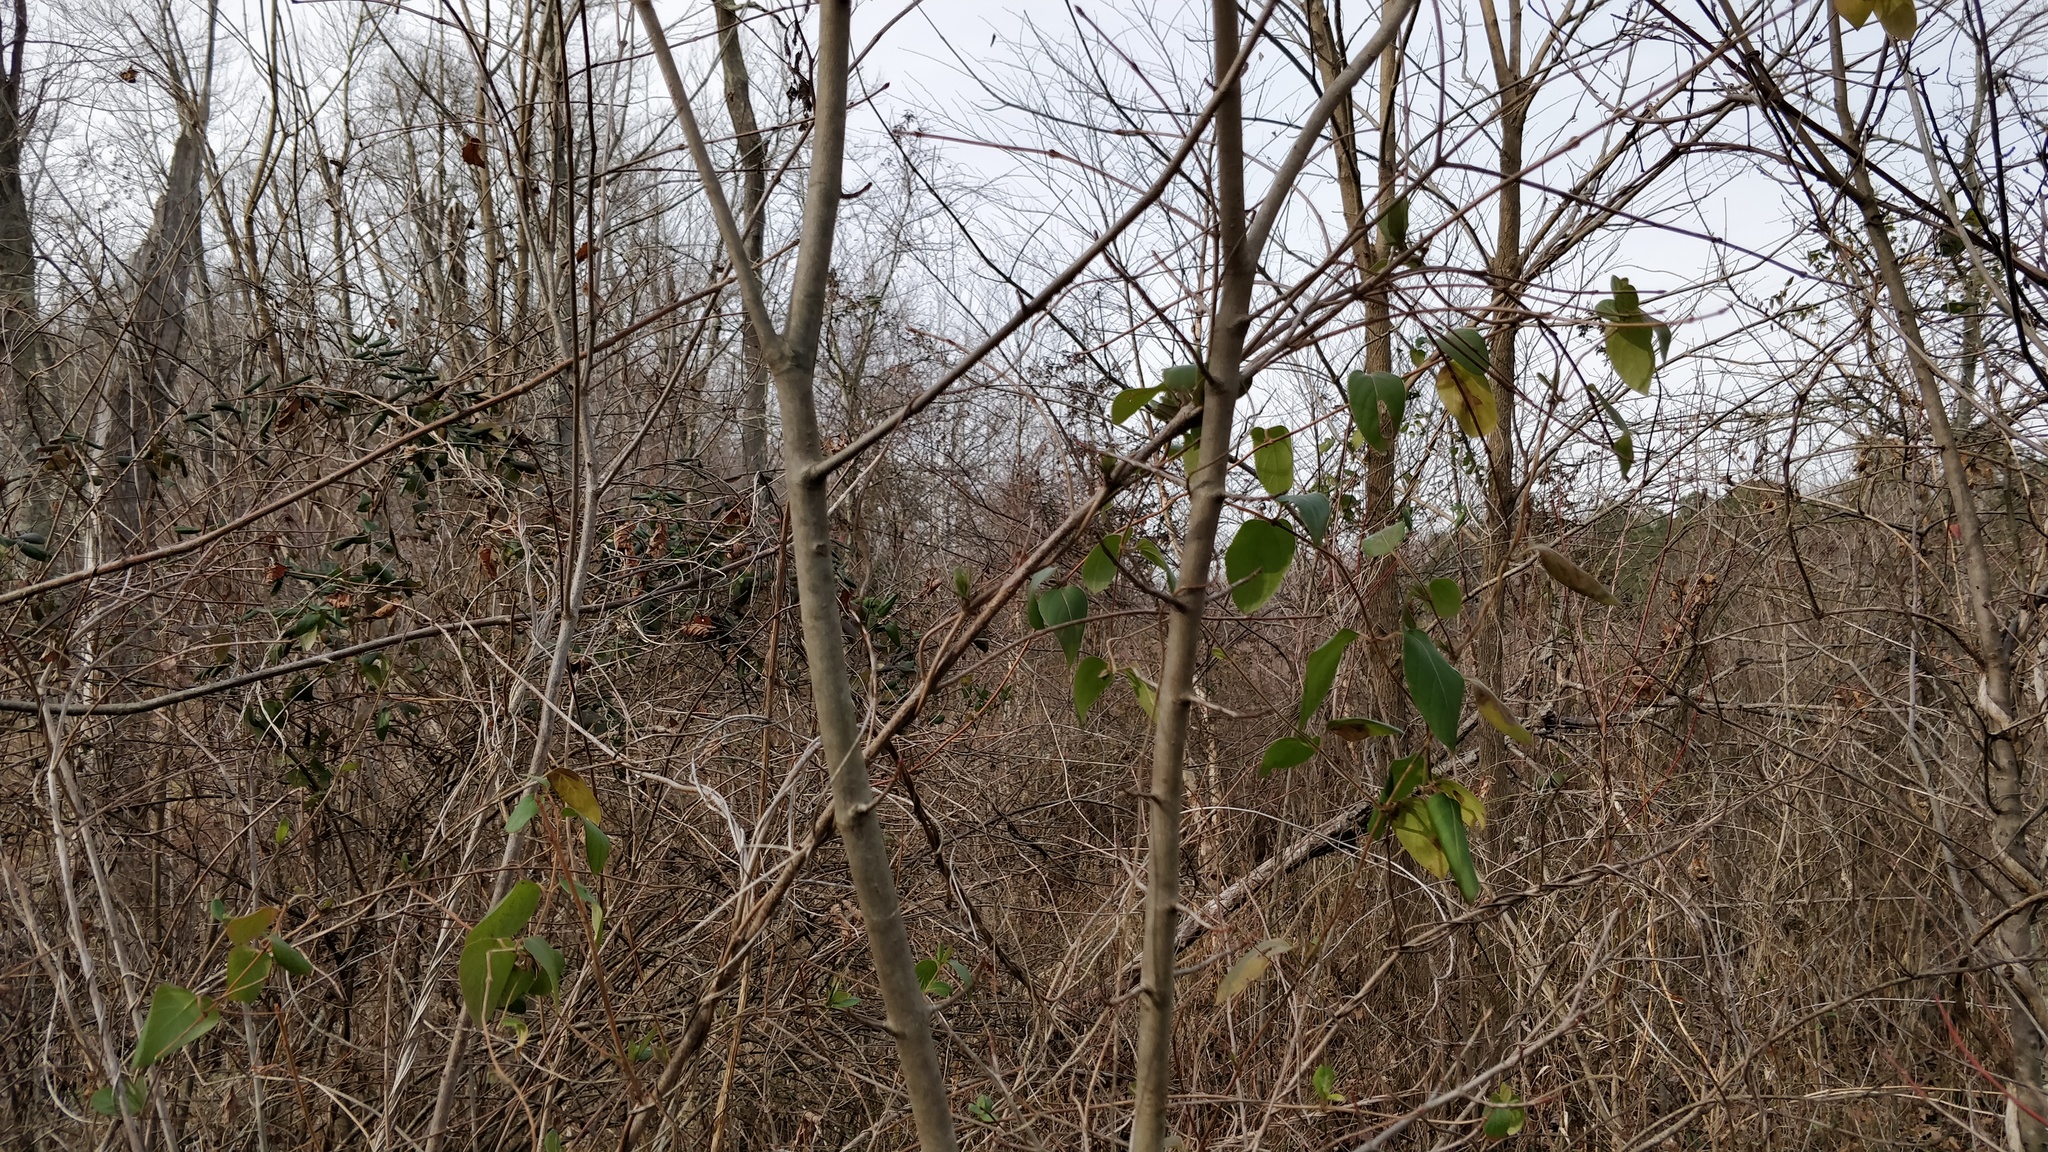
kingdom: Plantae
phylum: Tracheophyta
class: Magnoliopsida
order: Dipsacales
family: Caprifoliaceae
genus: Lonicera
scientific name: Lonicera japonica
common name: Japanese honeysuckle
